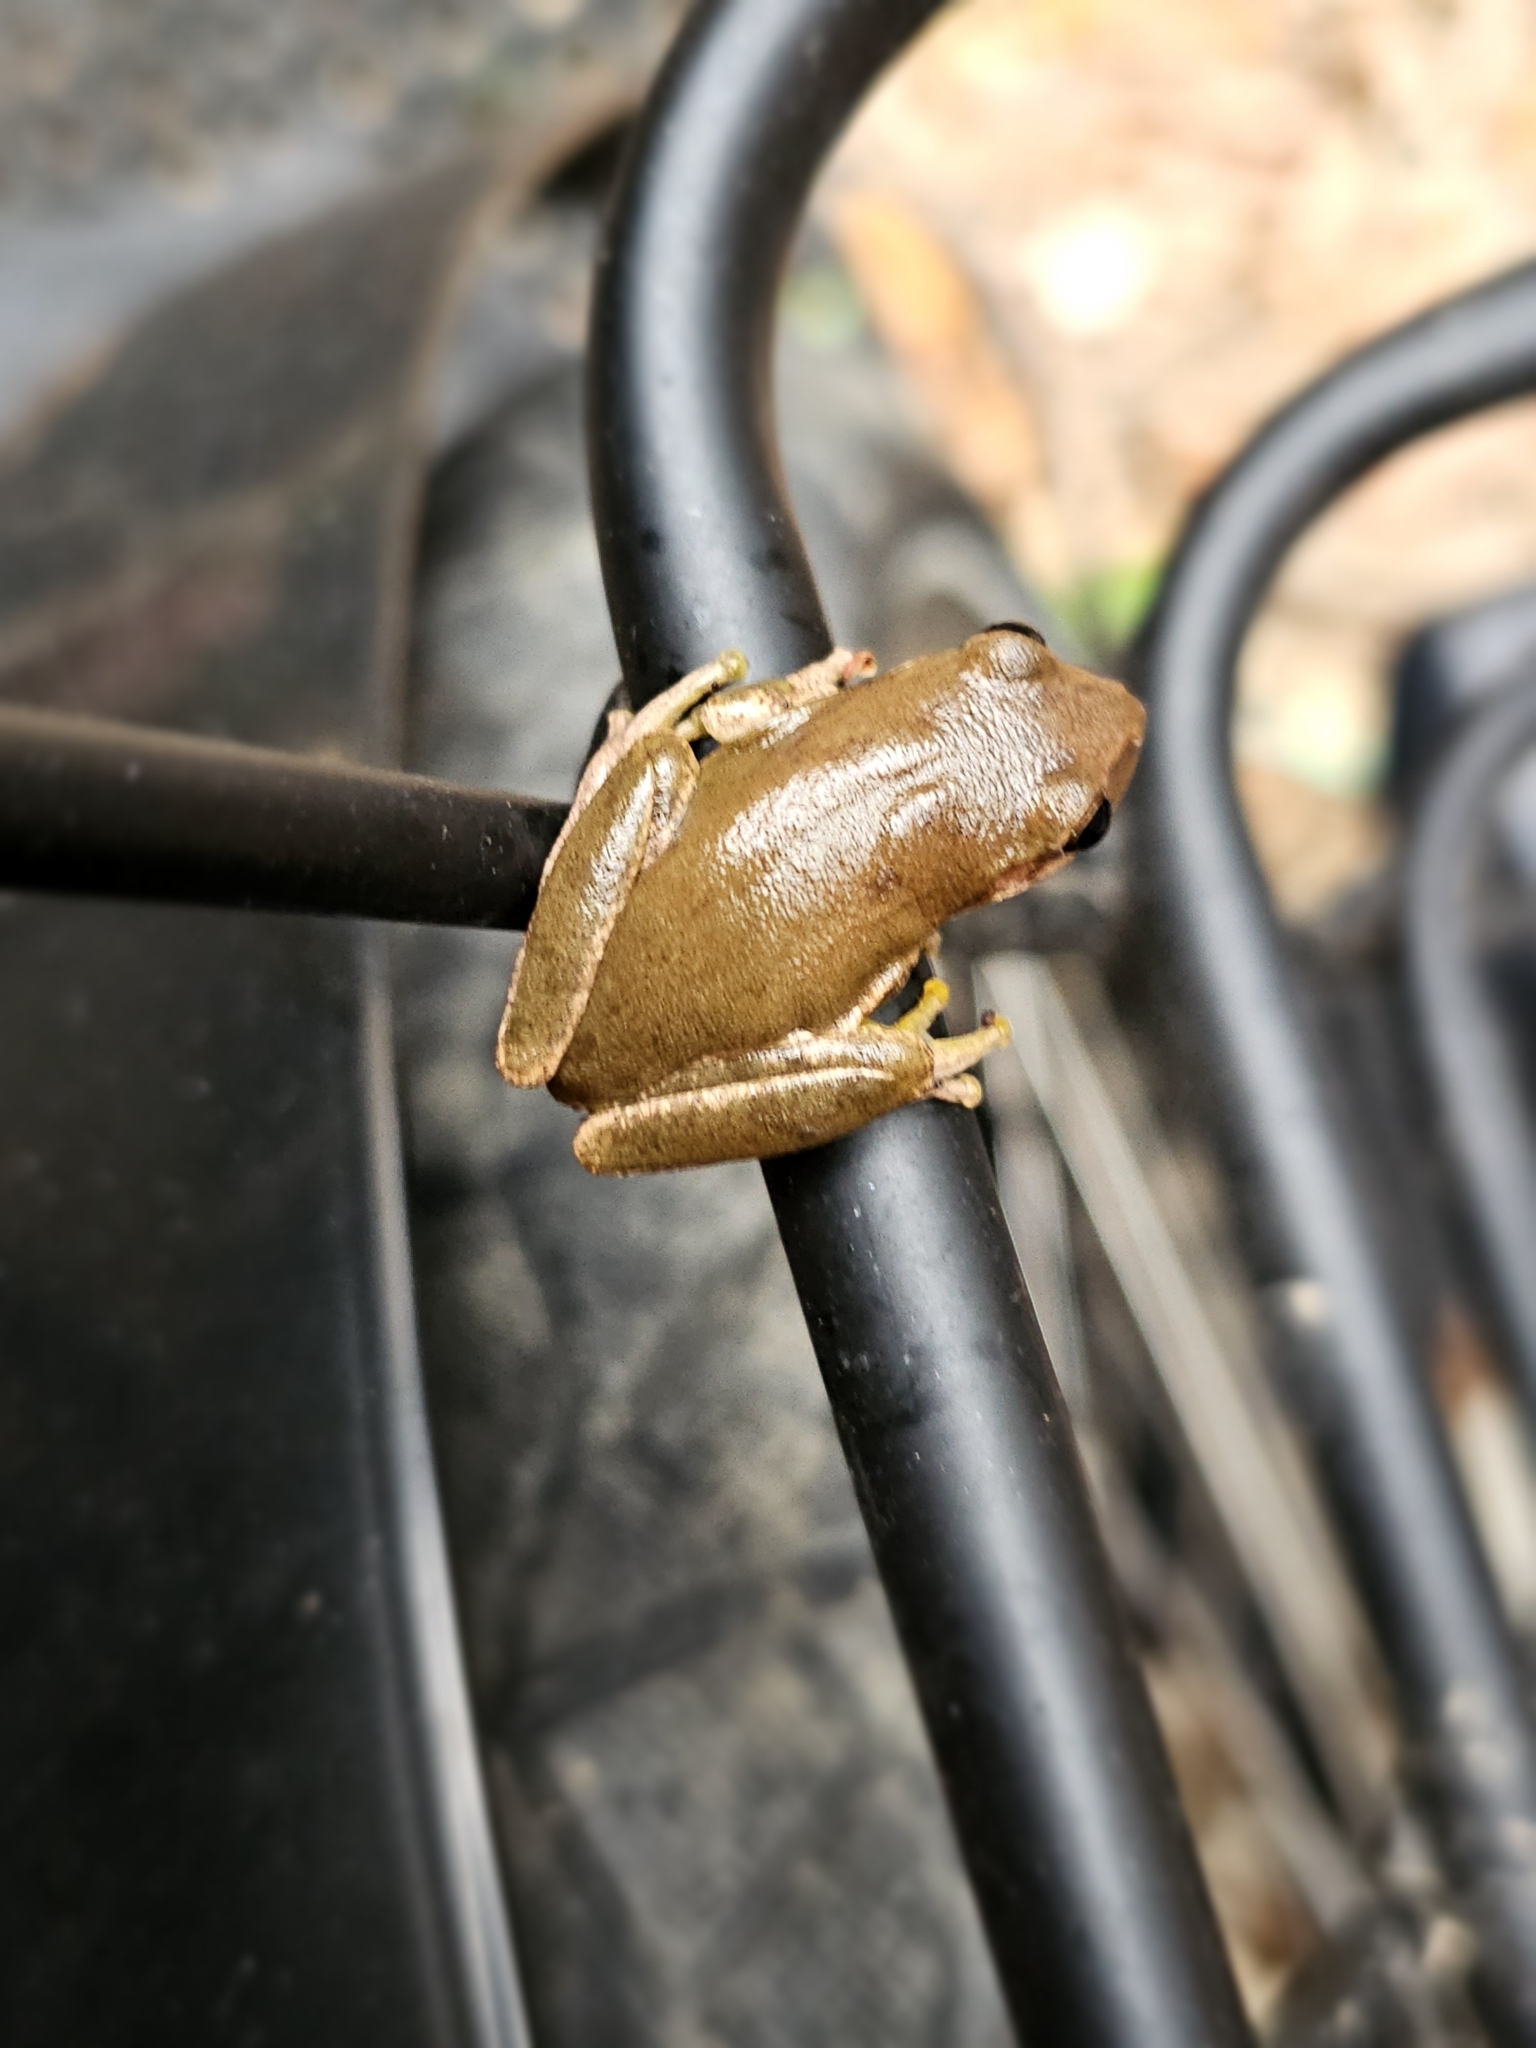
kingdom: Animalia
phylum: Chordata
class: Amphibia
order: Anura
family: Hylidae
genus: Dryophytes
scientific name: Dryophytes squirellus
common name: Squirrel treefrog
